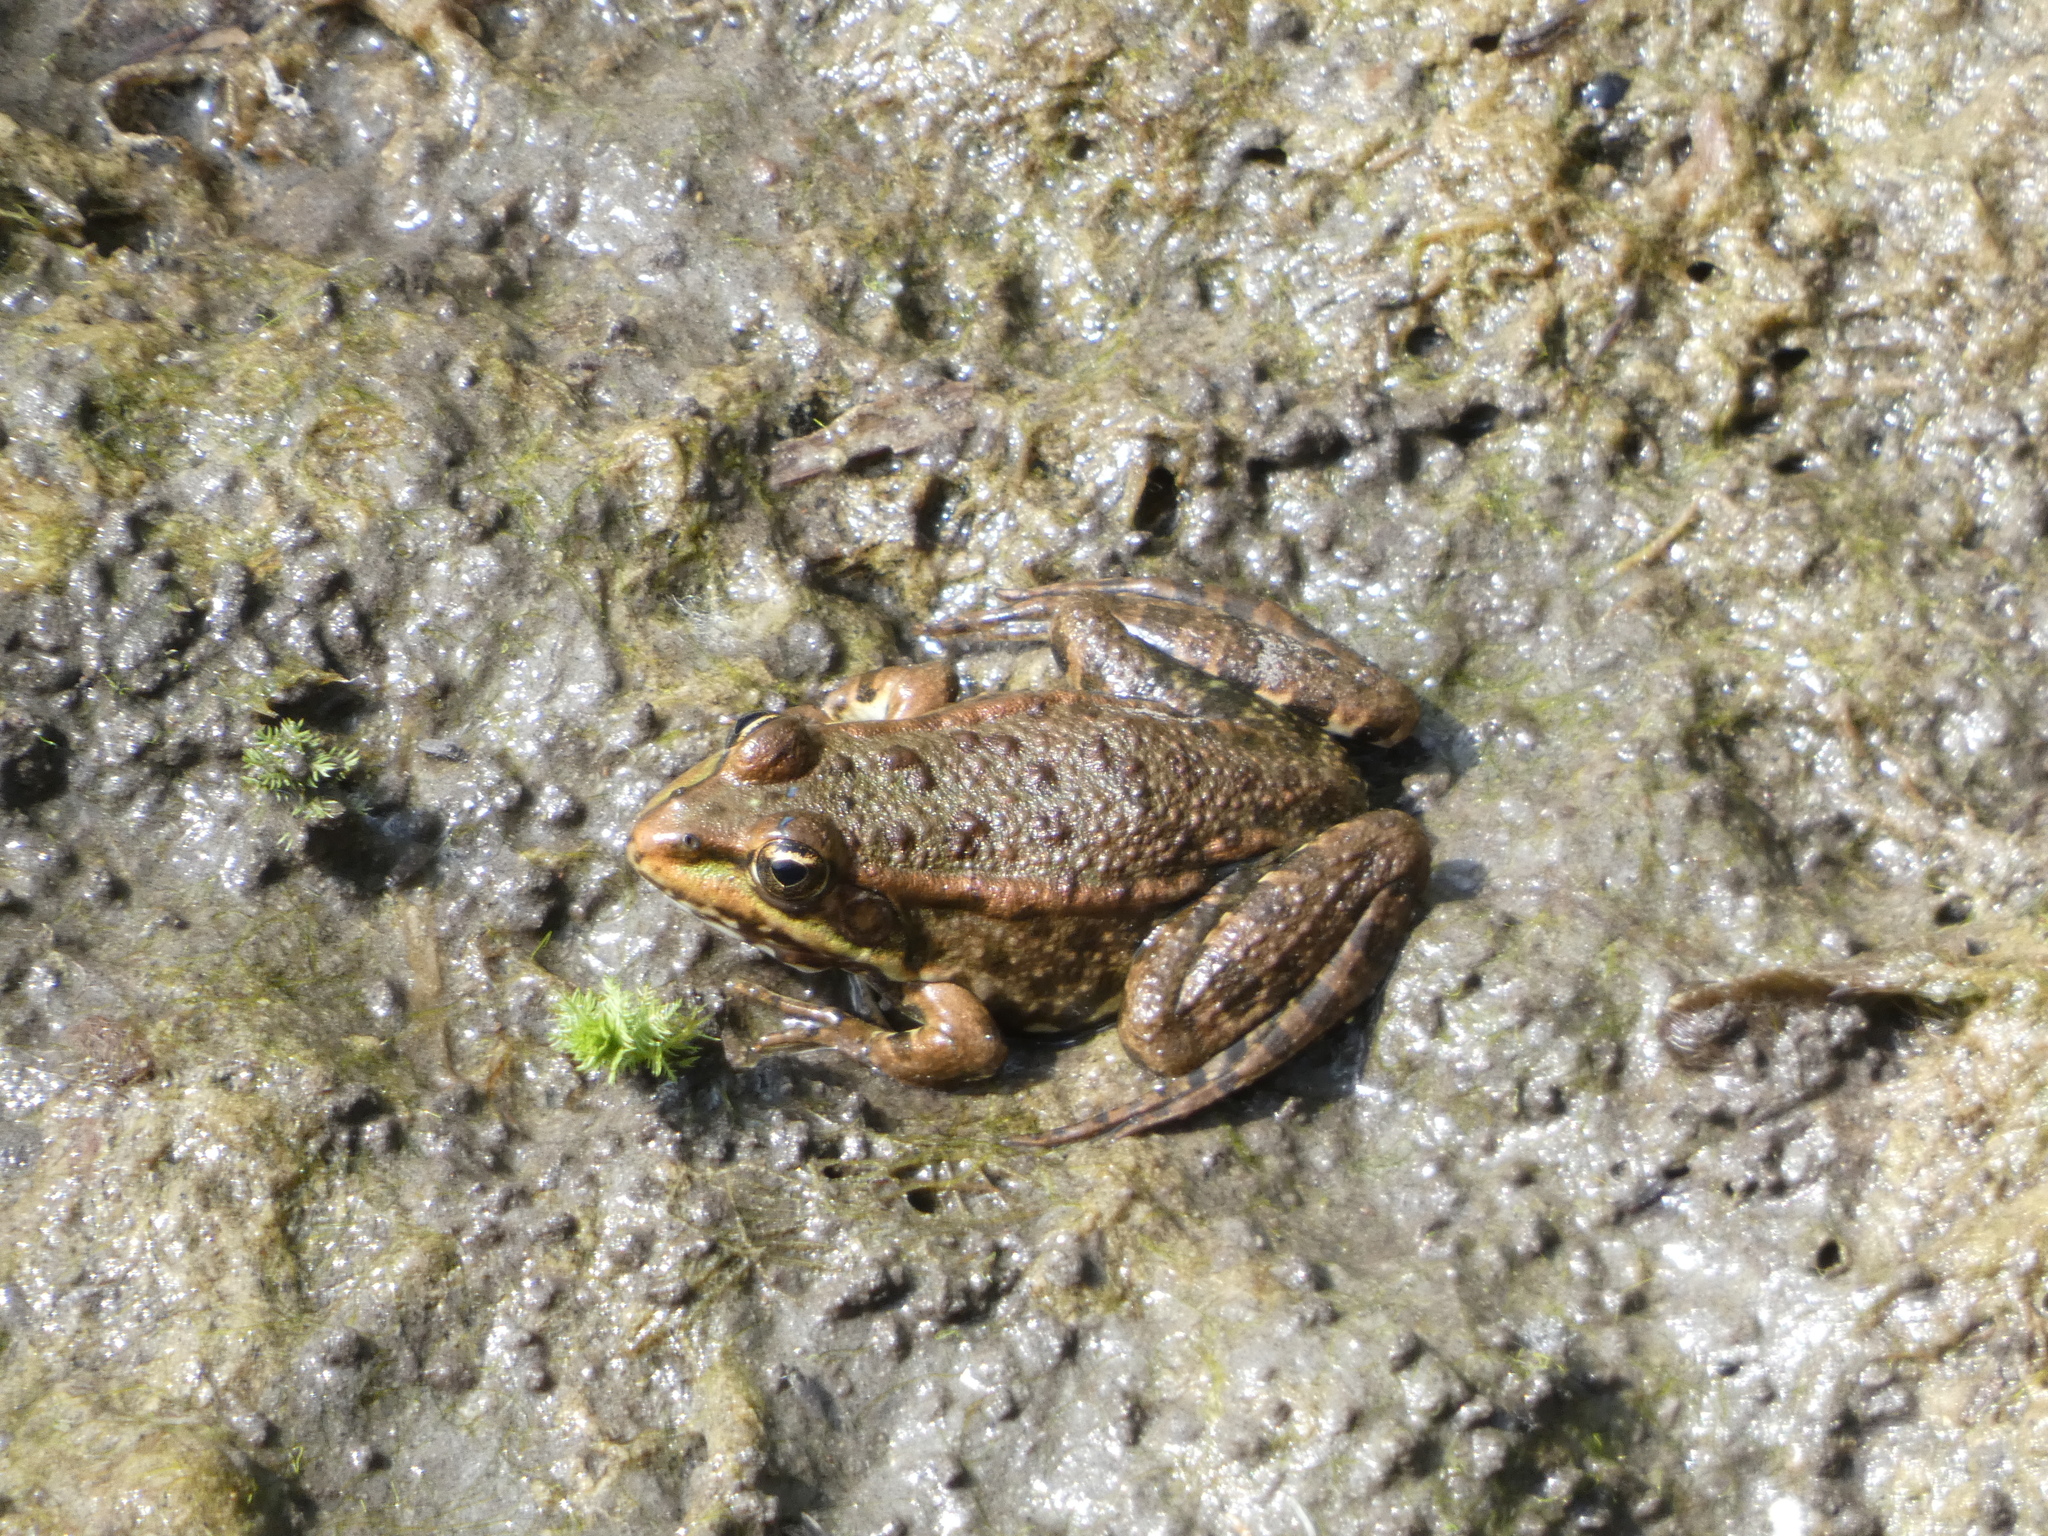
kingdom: Animalia
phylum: Chordata
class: Amphibia
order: Anura
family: Ranidae
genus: Pelophylax
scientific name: Pelophylax
